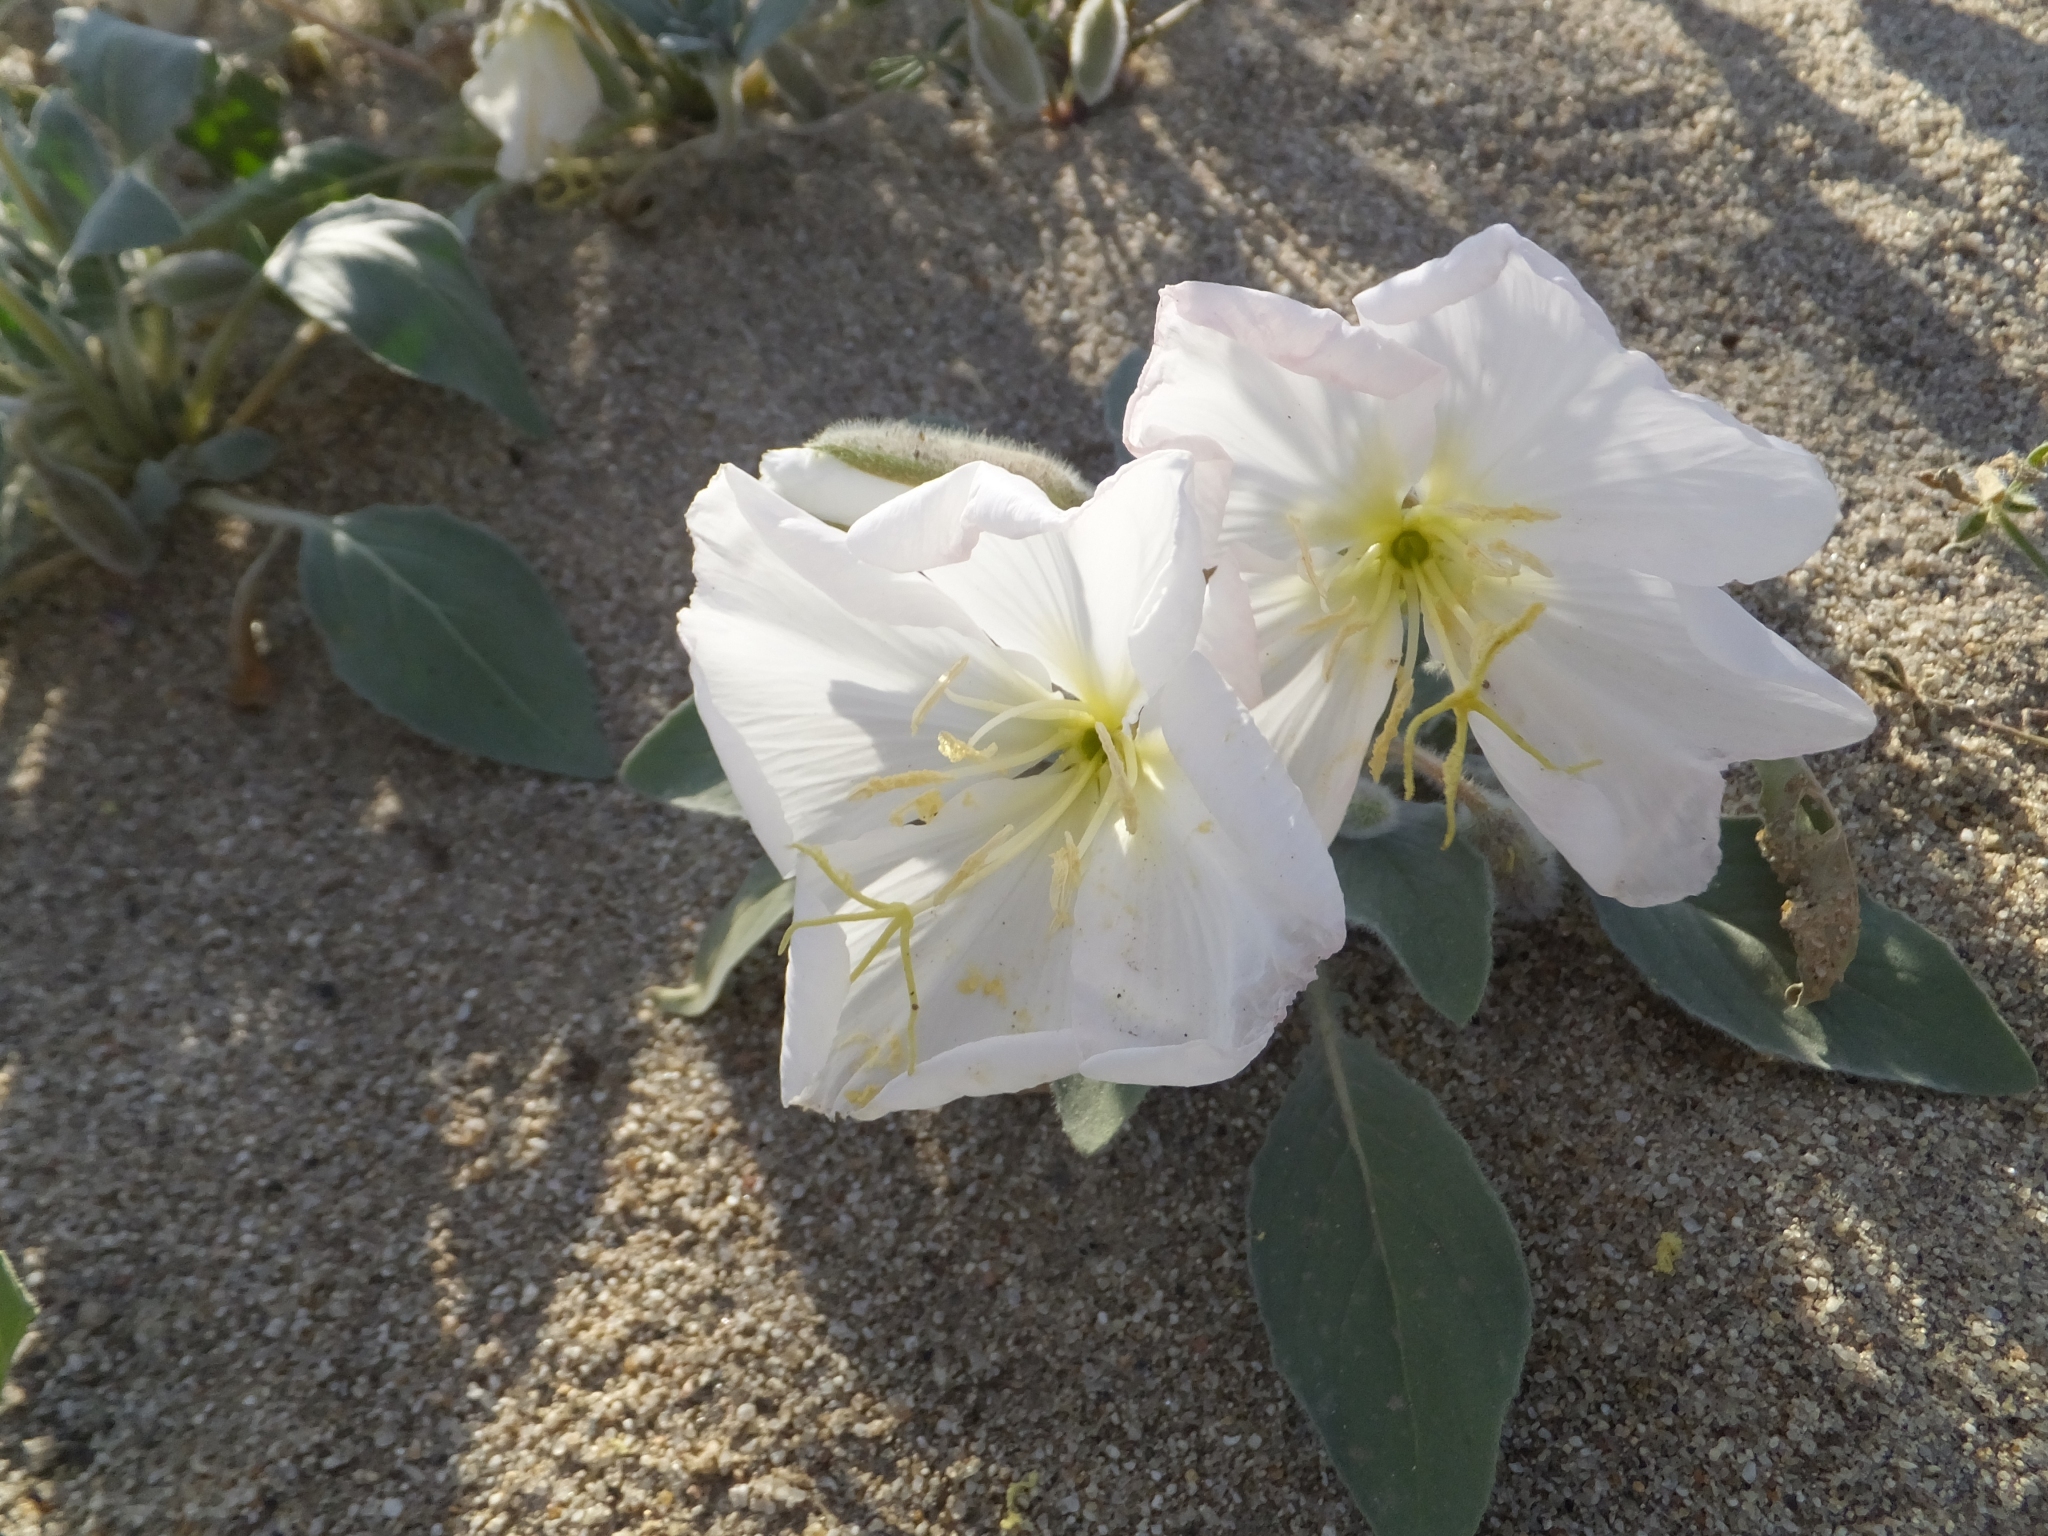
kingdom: Plantae
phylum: Tracheophyta
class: Magnoliopsida
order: Myrtales
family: Onagraceae
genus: Oenothera
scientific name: Oenothera deltoides
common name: Basket evening-primrose
